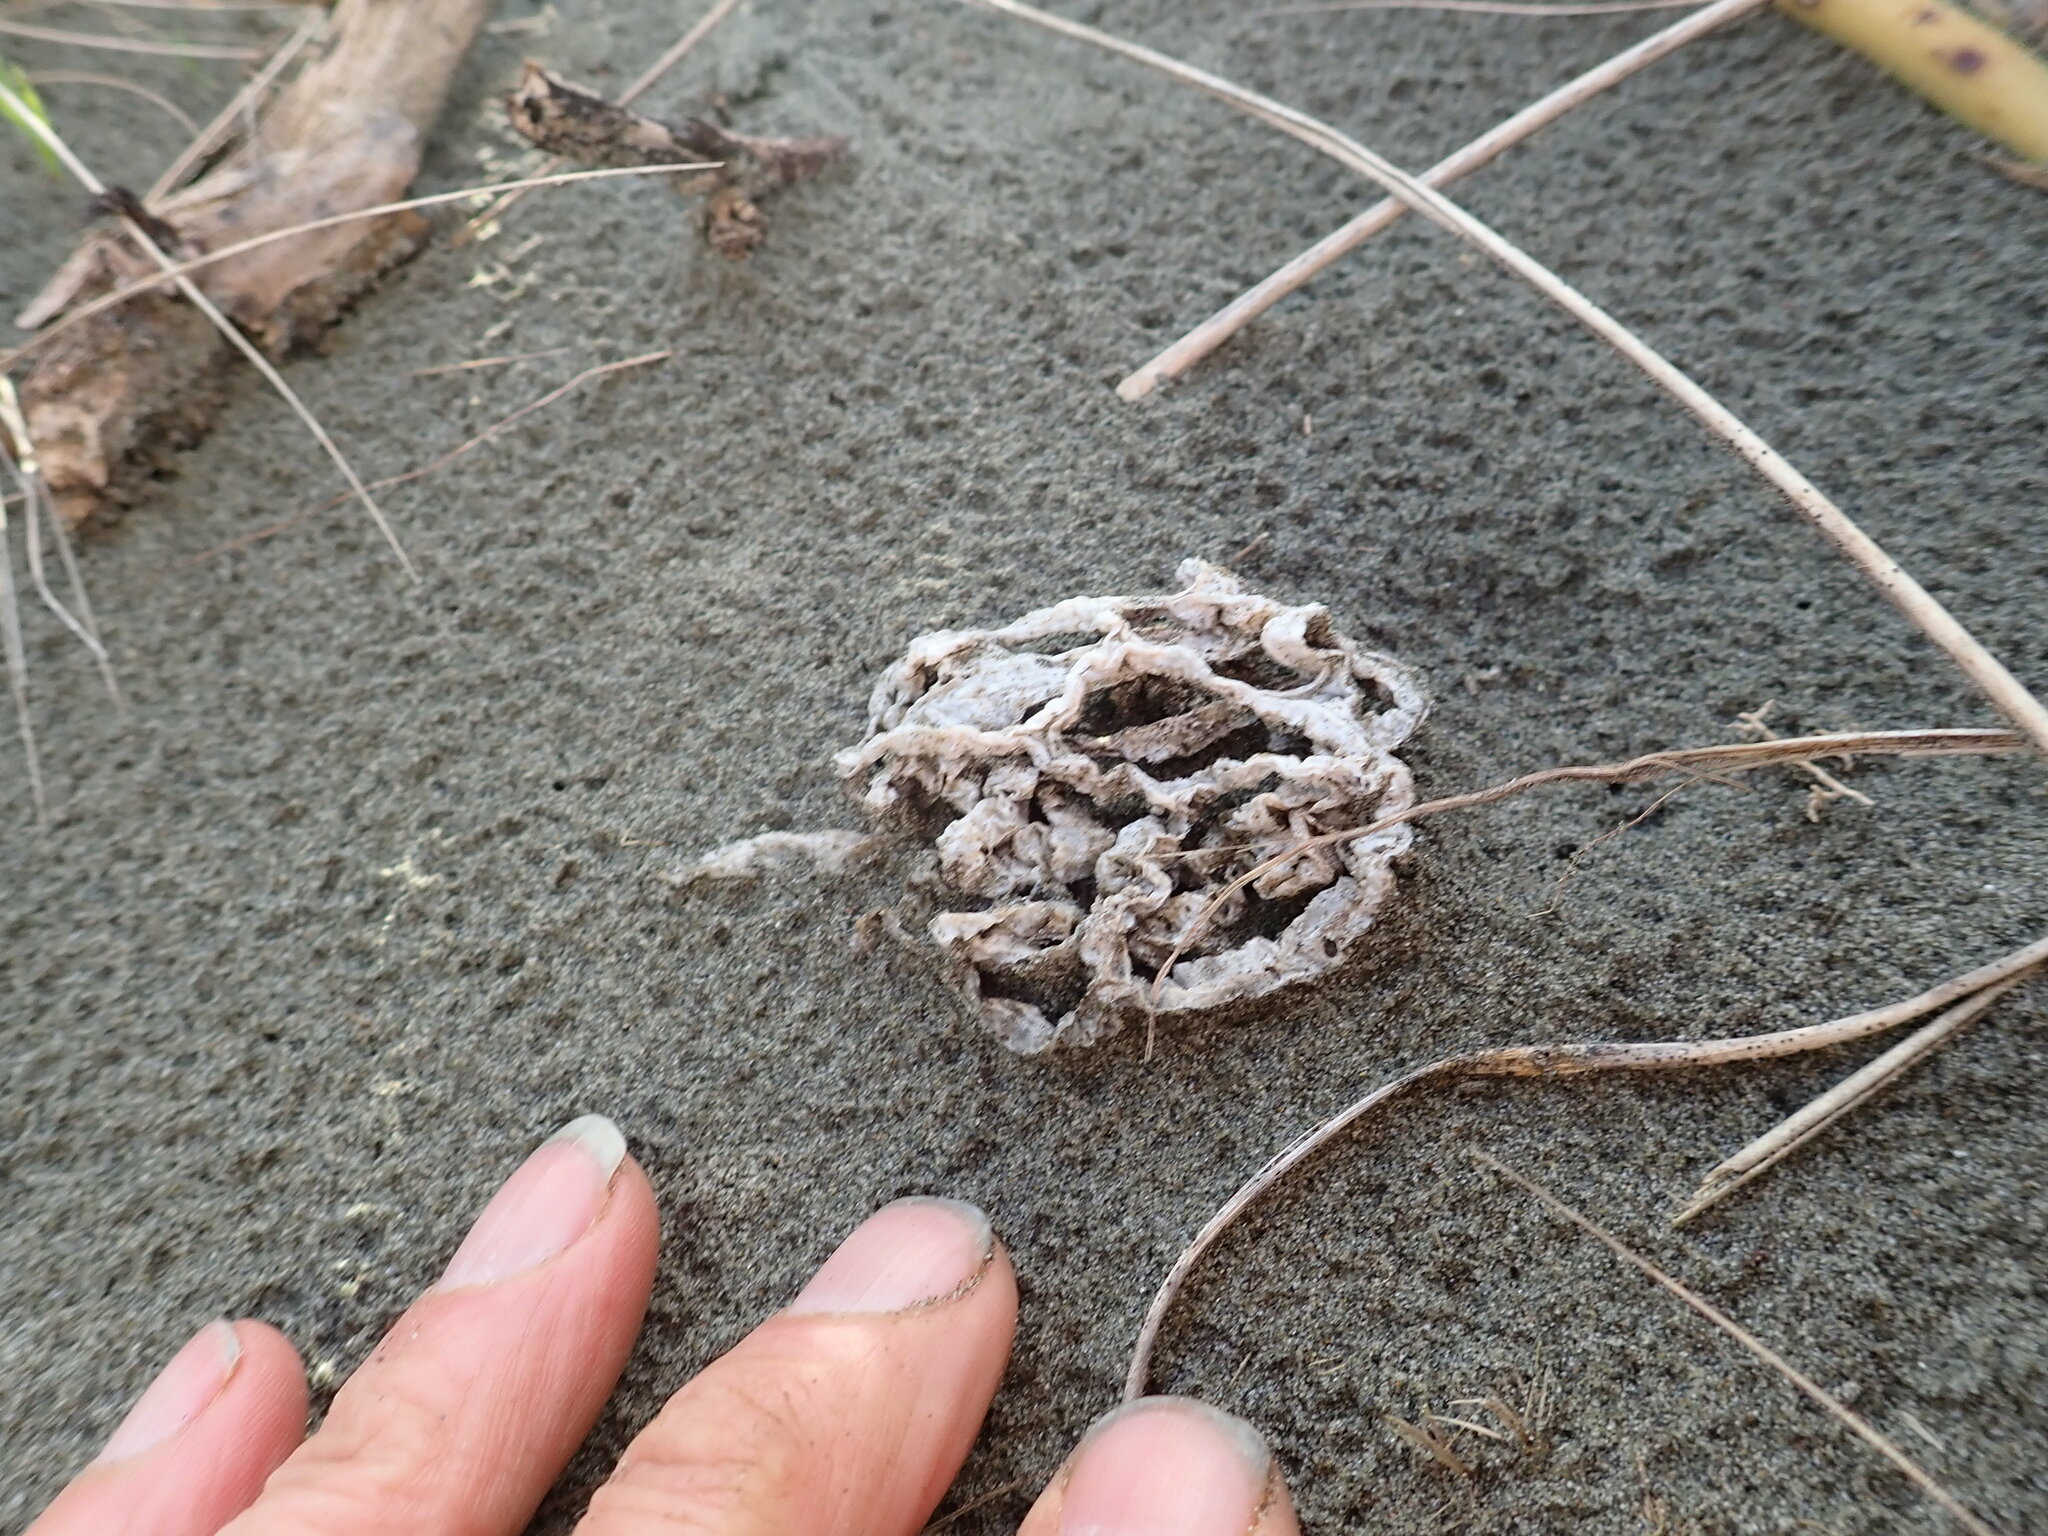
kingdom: Fungi
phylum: Basidiomycota
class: Agaricomycetes
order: Phallales
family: Phallaceae
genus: Ileodictyon
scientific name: Ileodictyon cibarium
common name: Basket fungus
